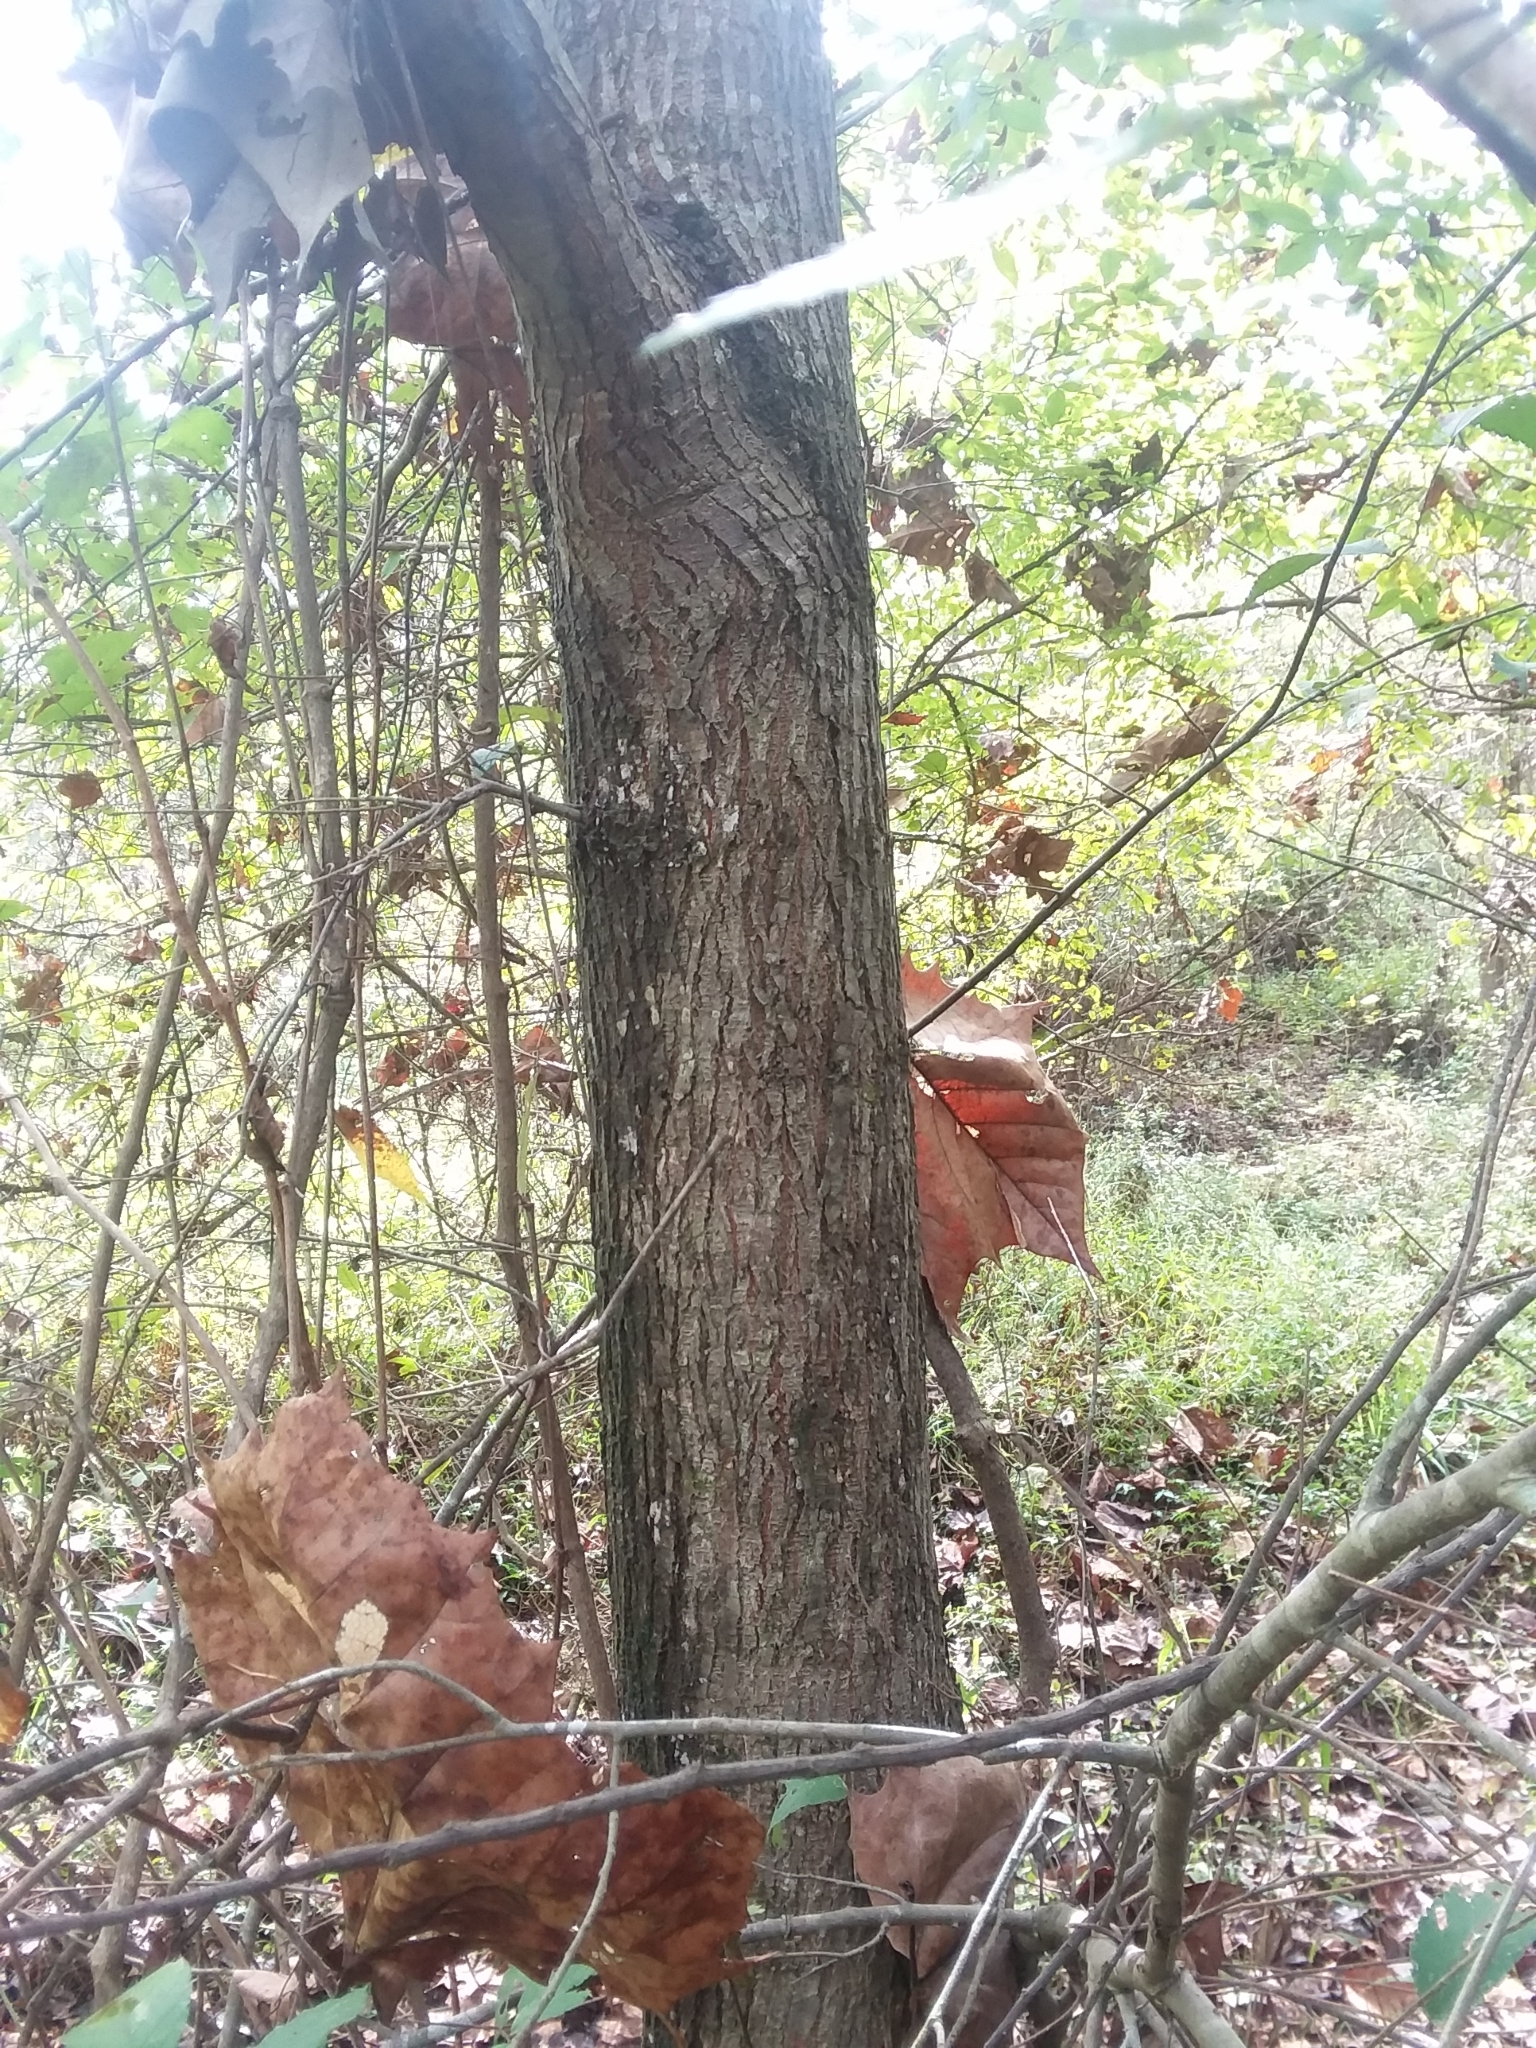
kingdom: Plantae
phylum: Tracheophyta
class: Magnoliopsida
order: Rosales
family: Ulmaceae
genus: Ulmus
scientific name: Ulmus americana
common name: American elm
